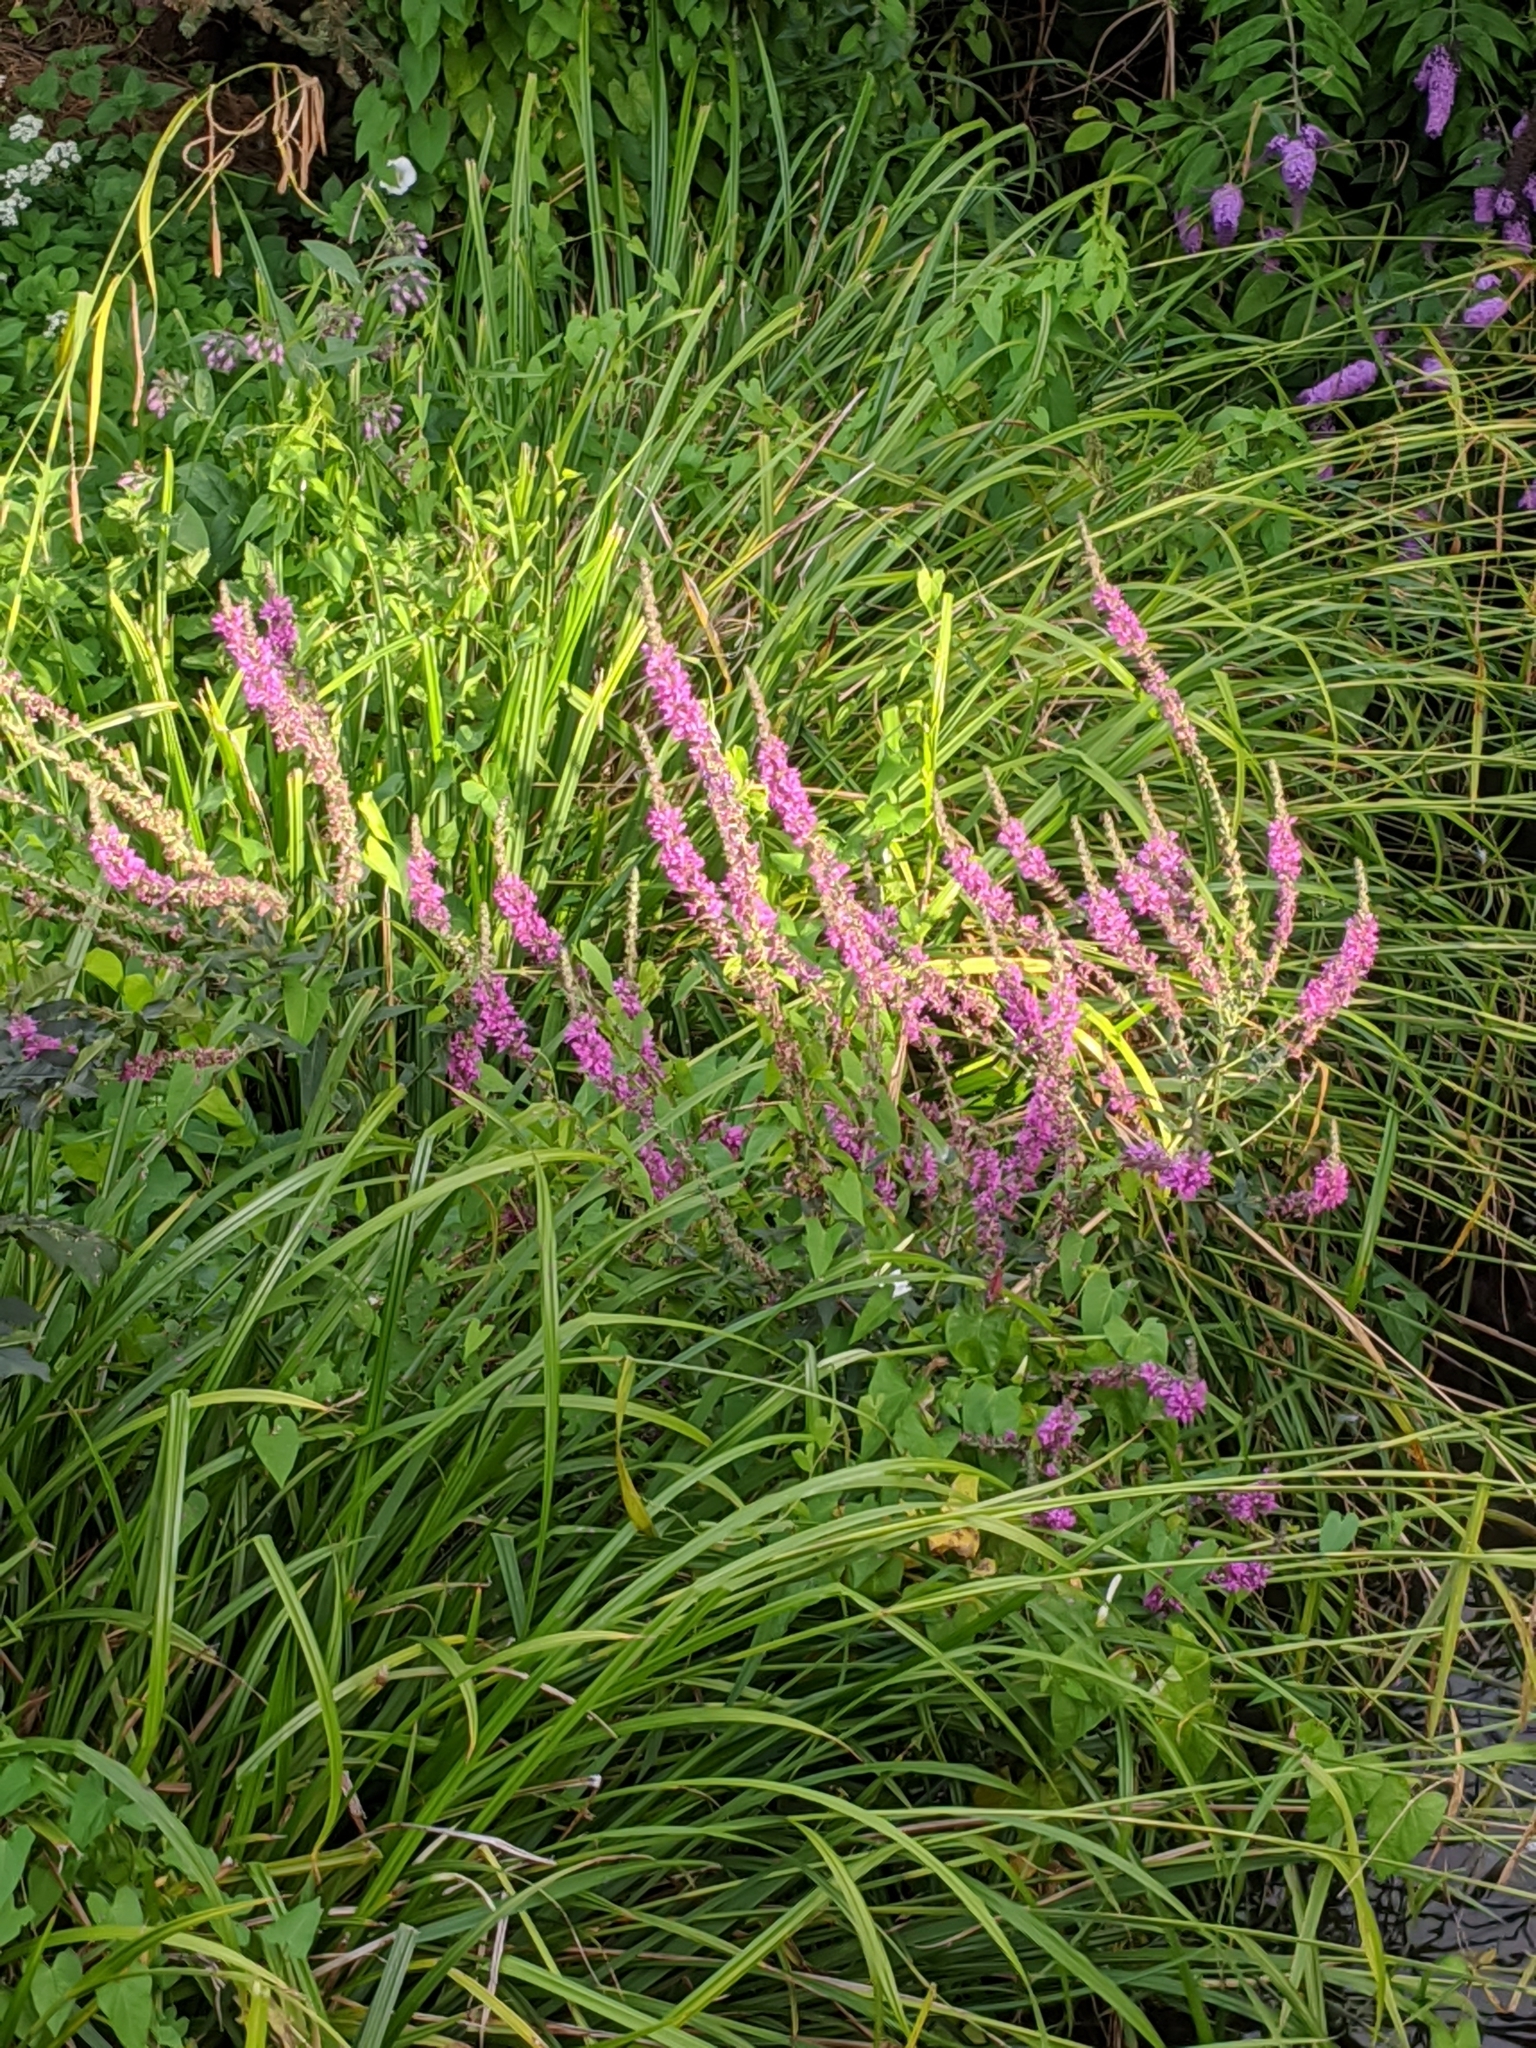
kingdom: Plantae
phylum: Tracheophyta
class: Magnoliopsida
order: Myrtales
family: Lythraceae
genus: Lythrum
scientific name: Lythrum salicaria
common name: Purple loosestrife
